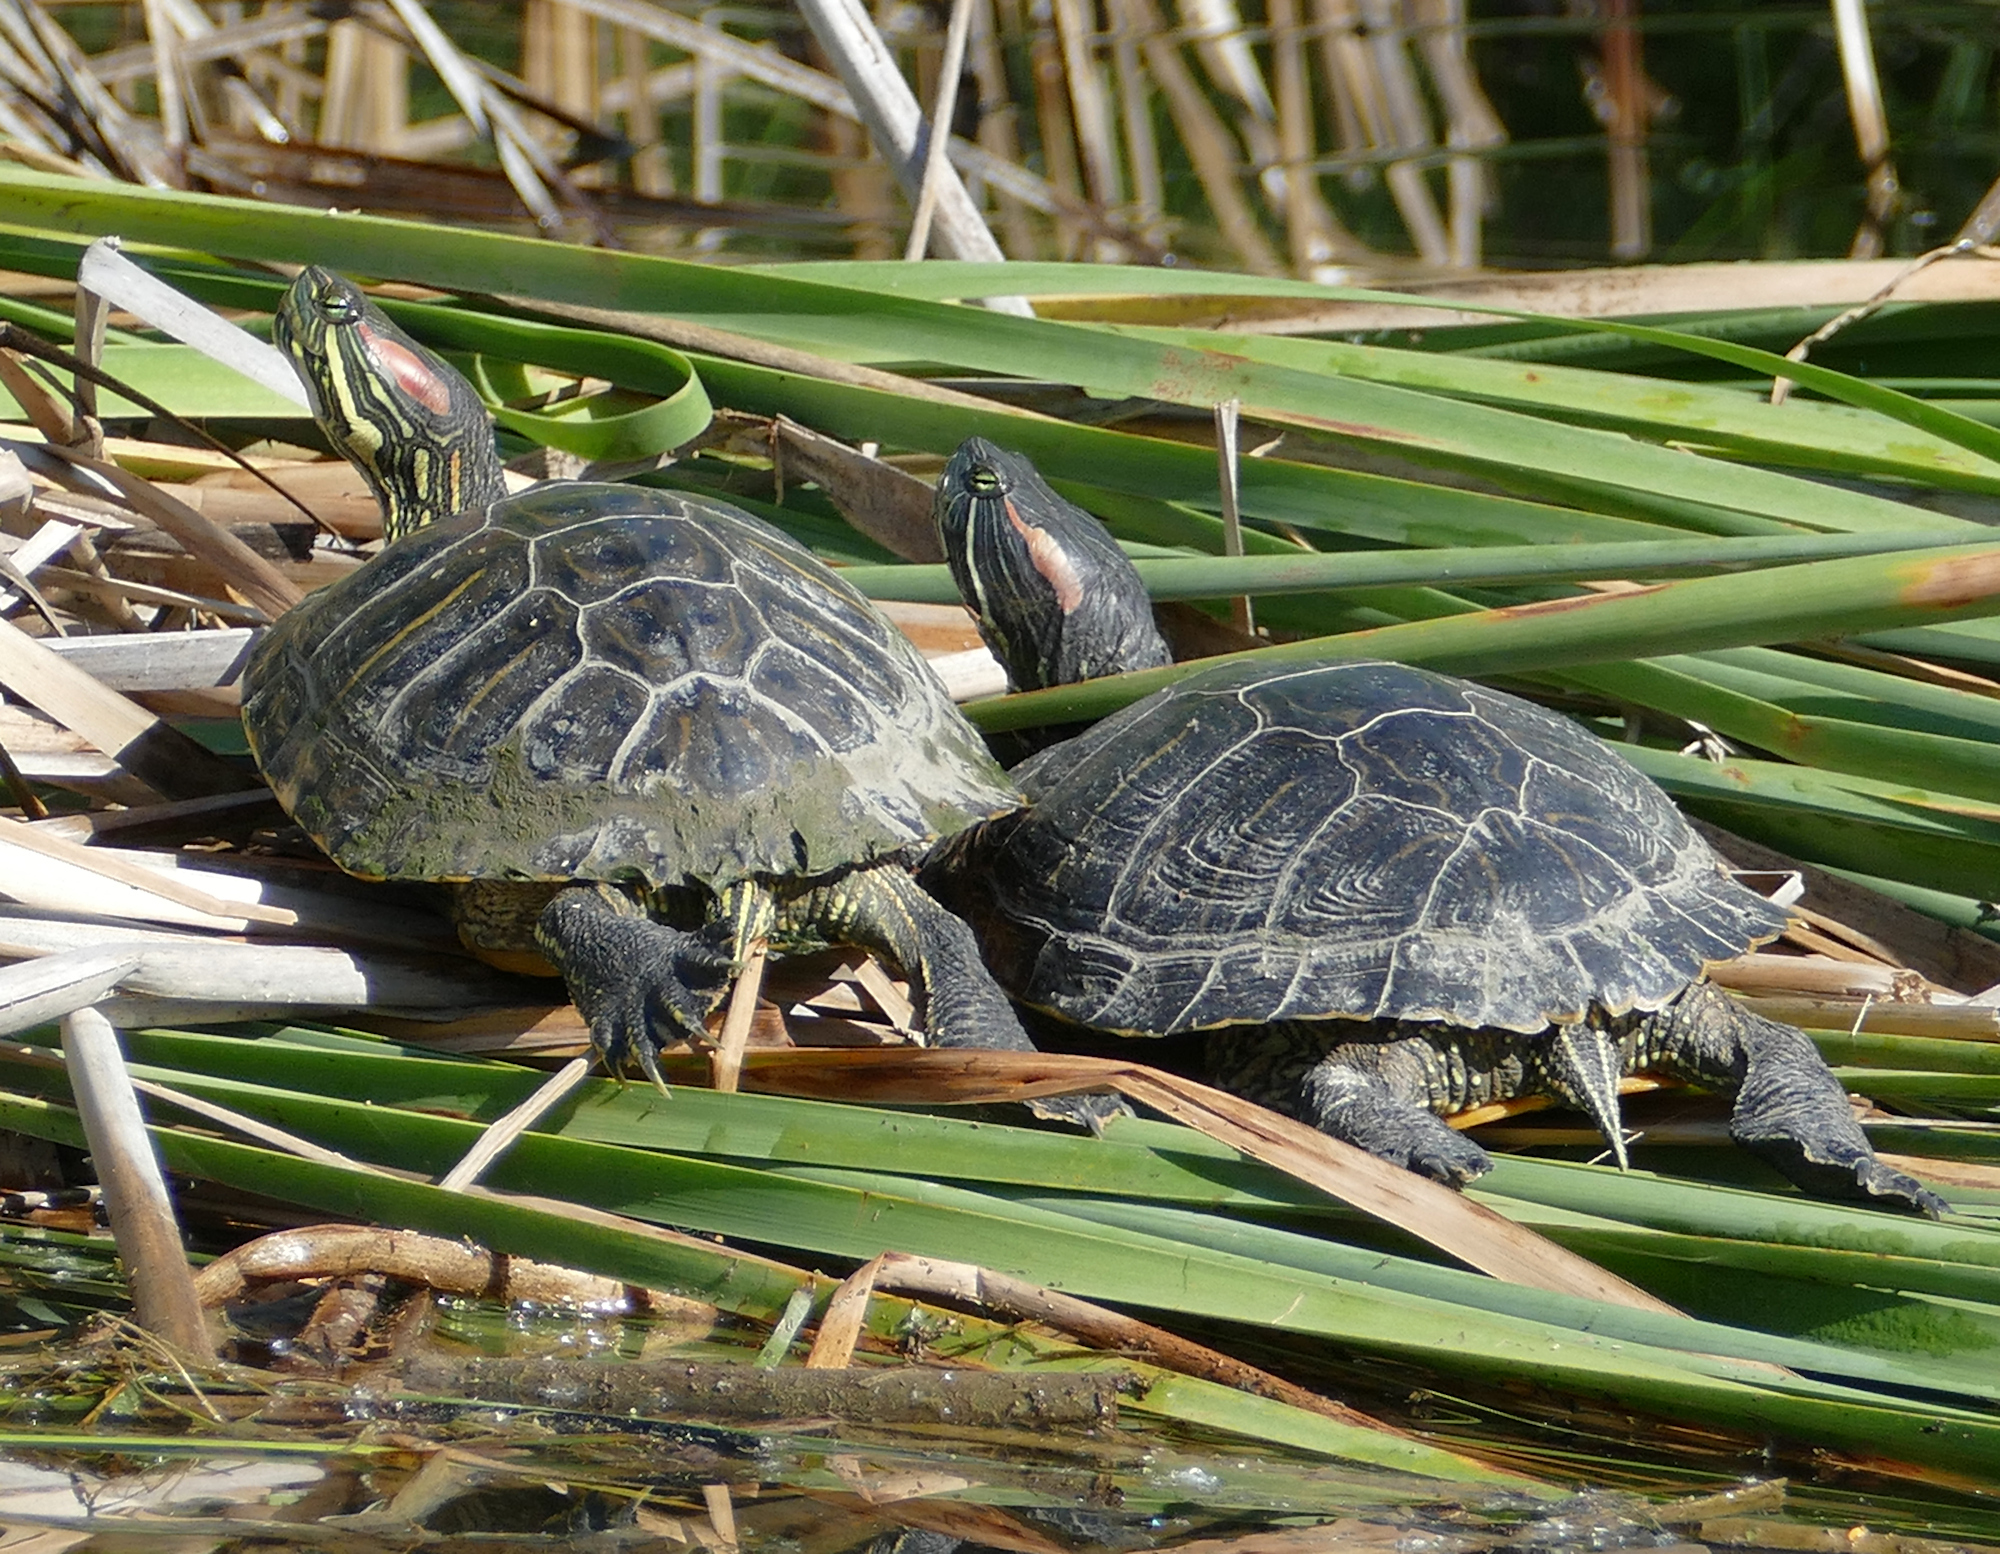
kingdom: Animalia
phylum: Chordata
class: Testudines
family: Emydidae
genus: Trachemys
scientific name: Trachemys scripta
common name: Slider
